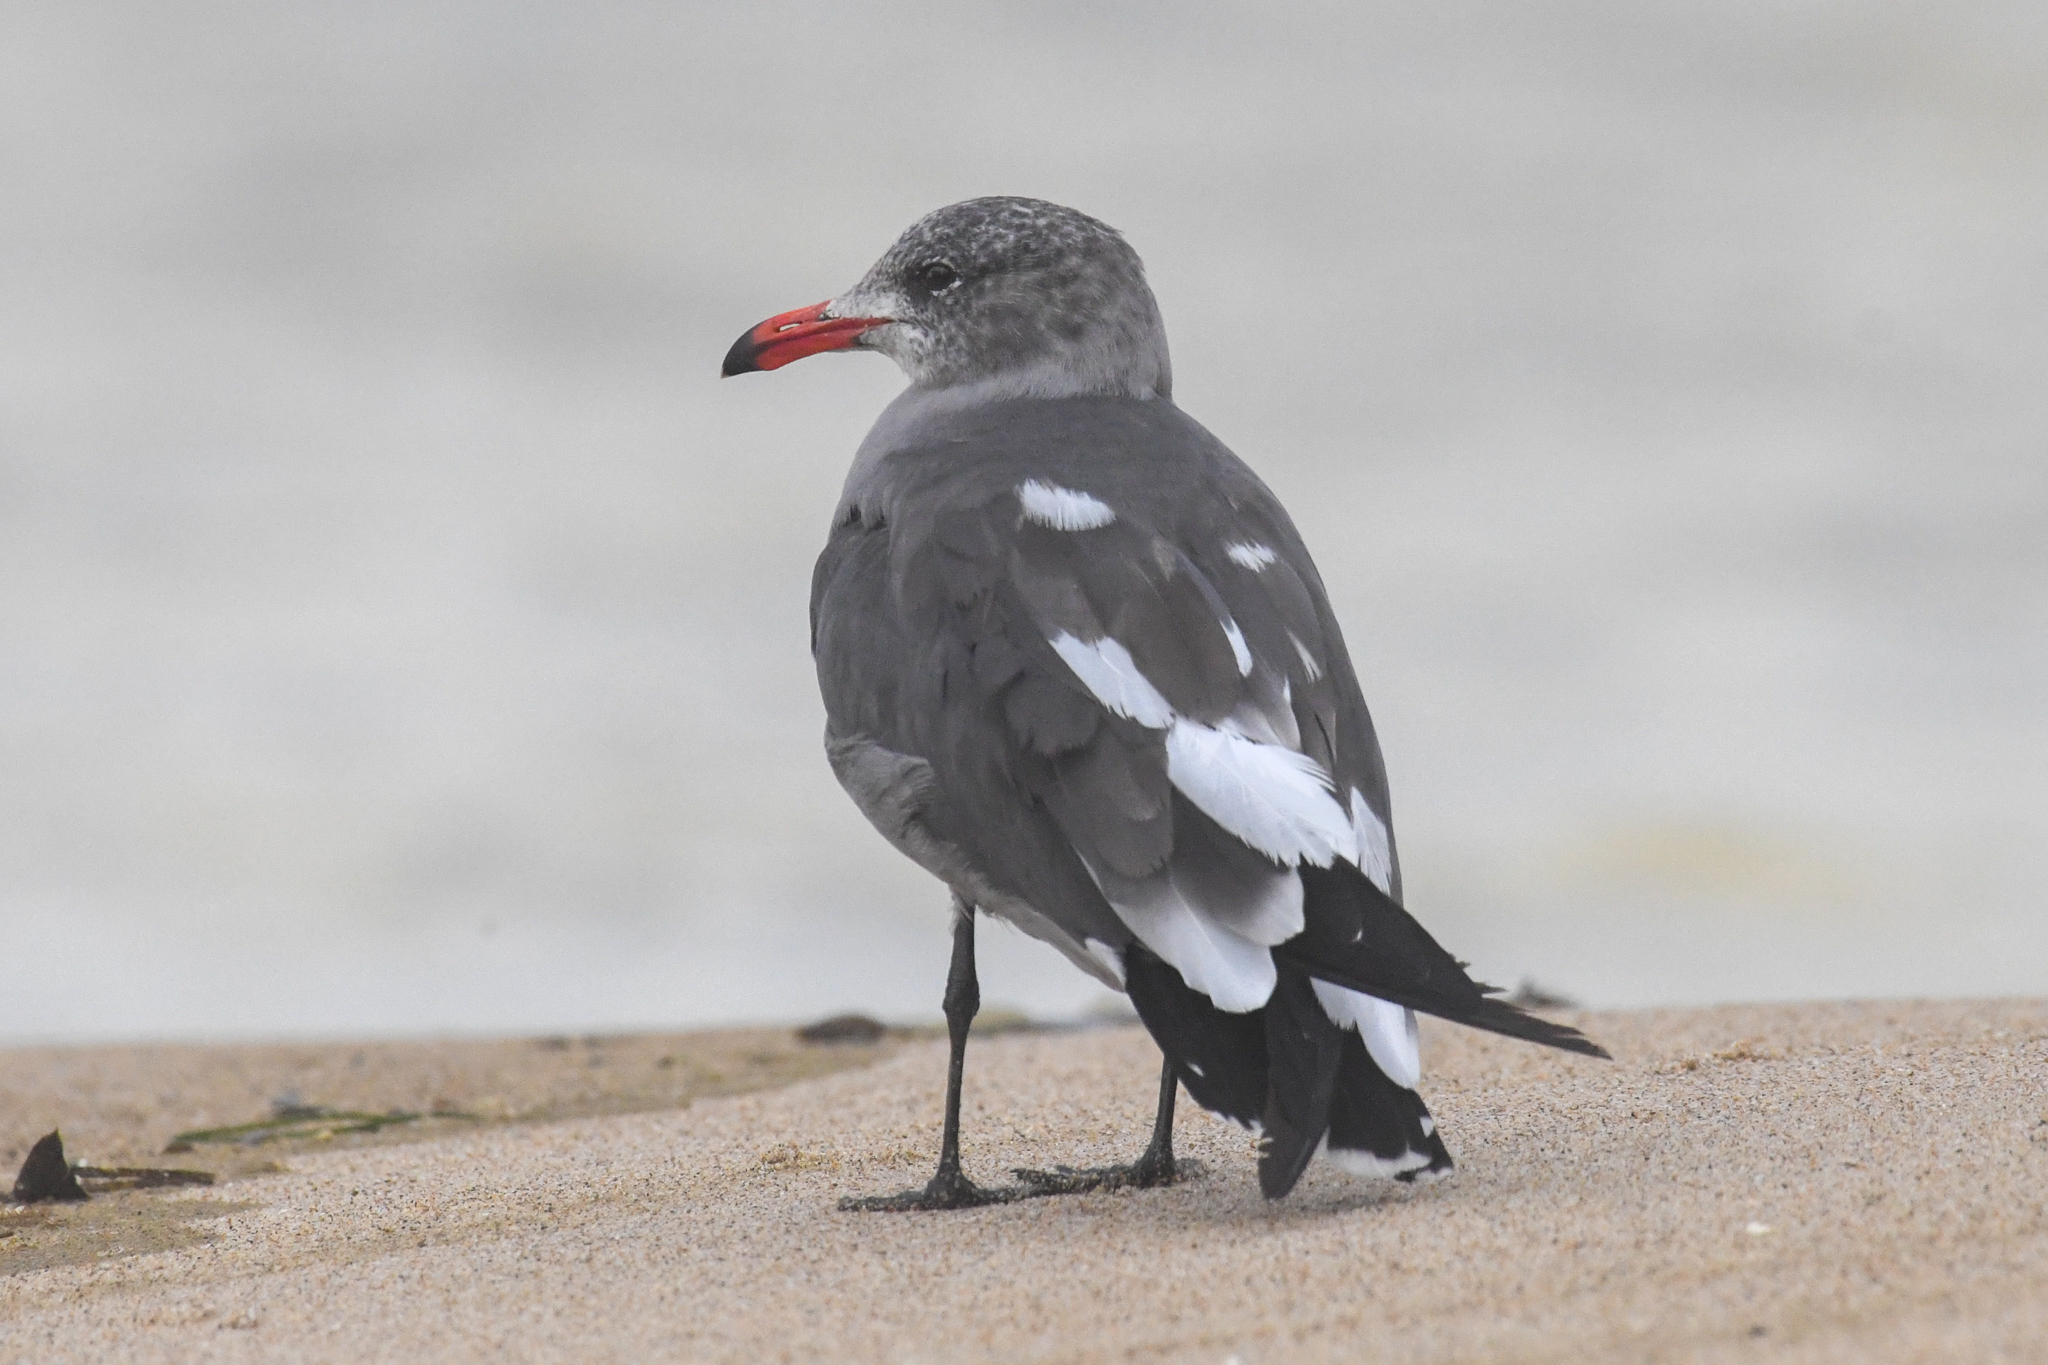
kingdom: Animalia
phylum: Chordata
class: Aves
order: Charadriiformes
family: Laridae
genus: Larus
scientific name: Larus heermanni
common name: Heermann's gull
